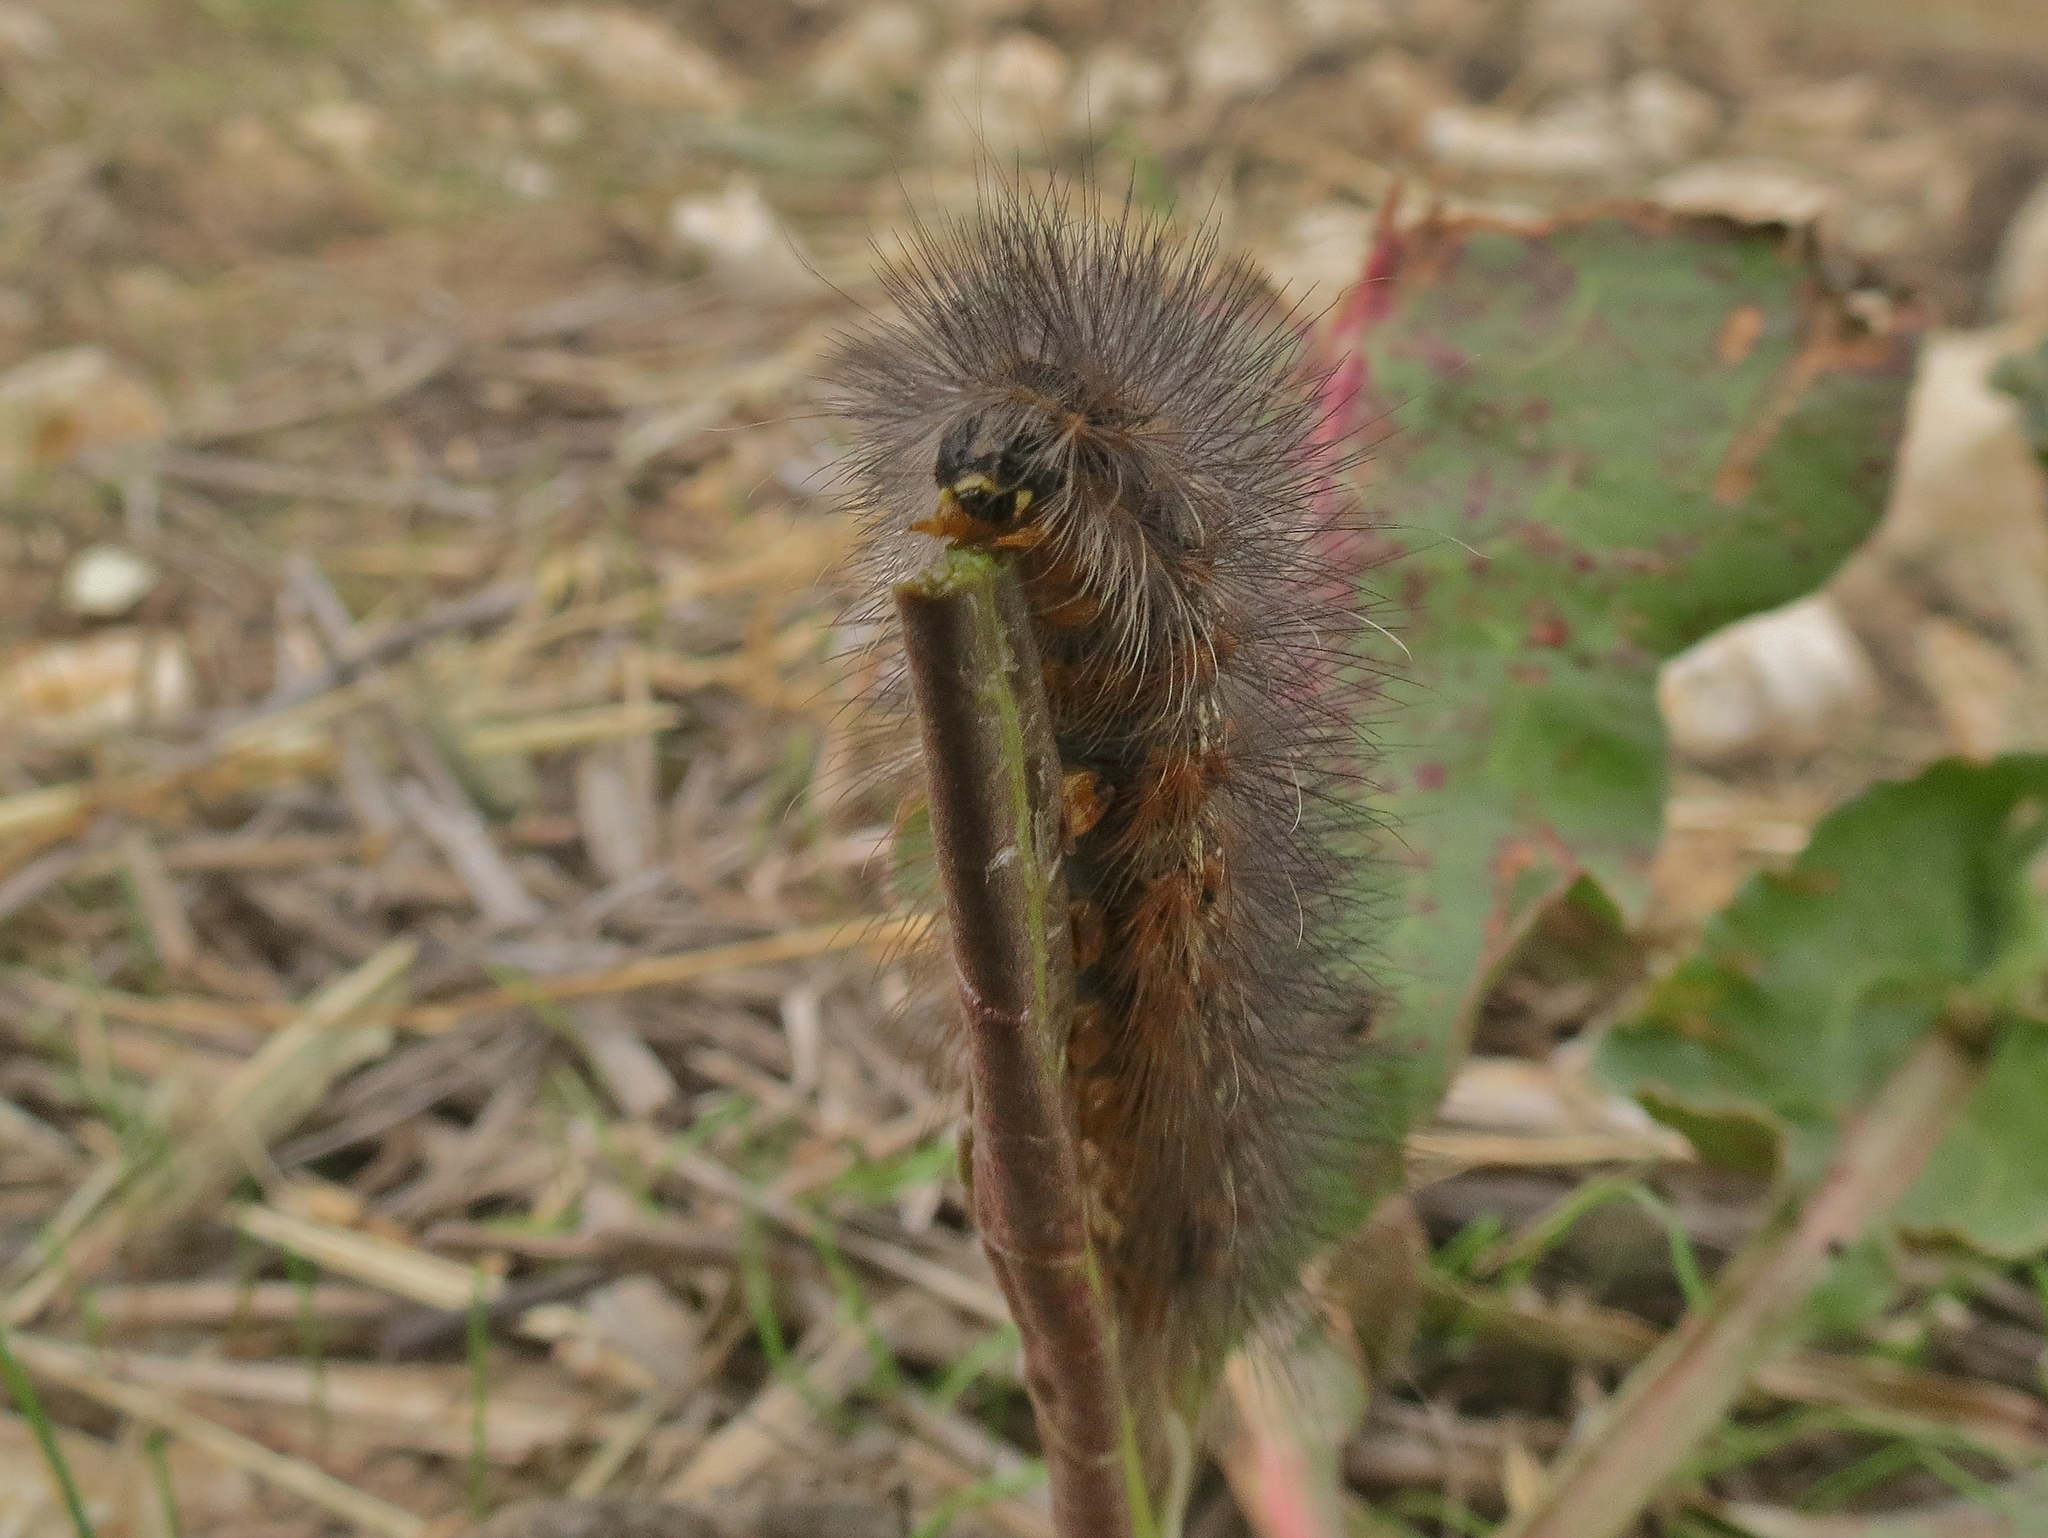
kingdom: Animalia
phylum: Arthropoda
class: Insecta
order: Lepidoptera
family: Erebidae
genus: Estigmene
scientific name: Estigmene acrea
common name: Salt marsh moth
